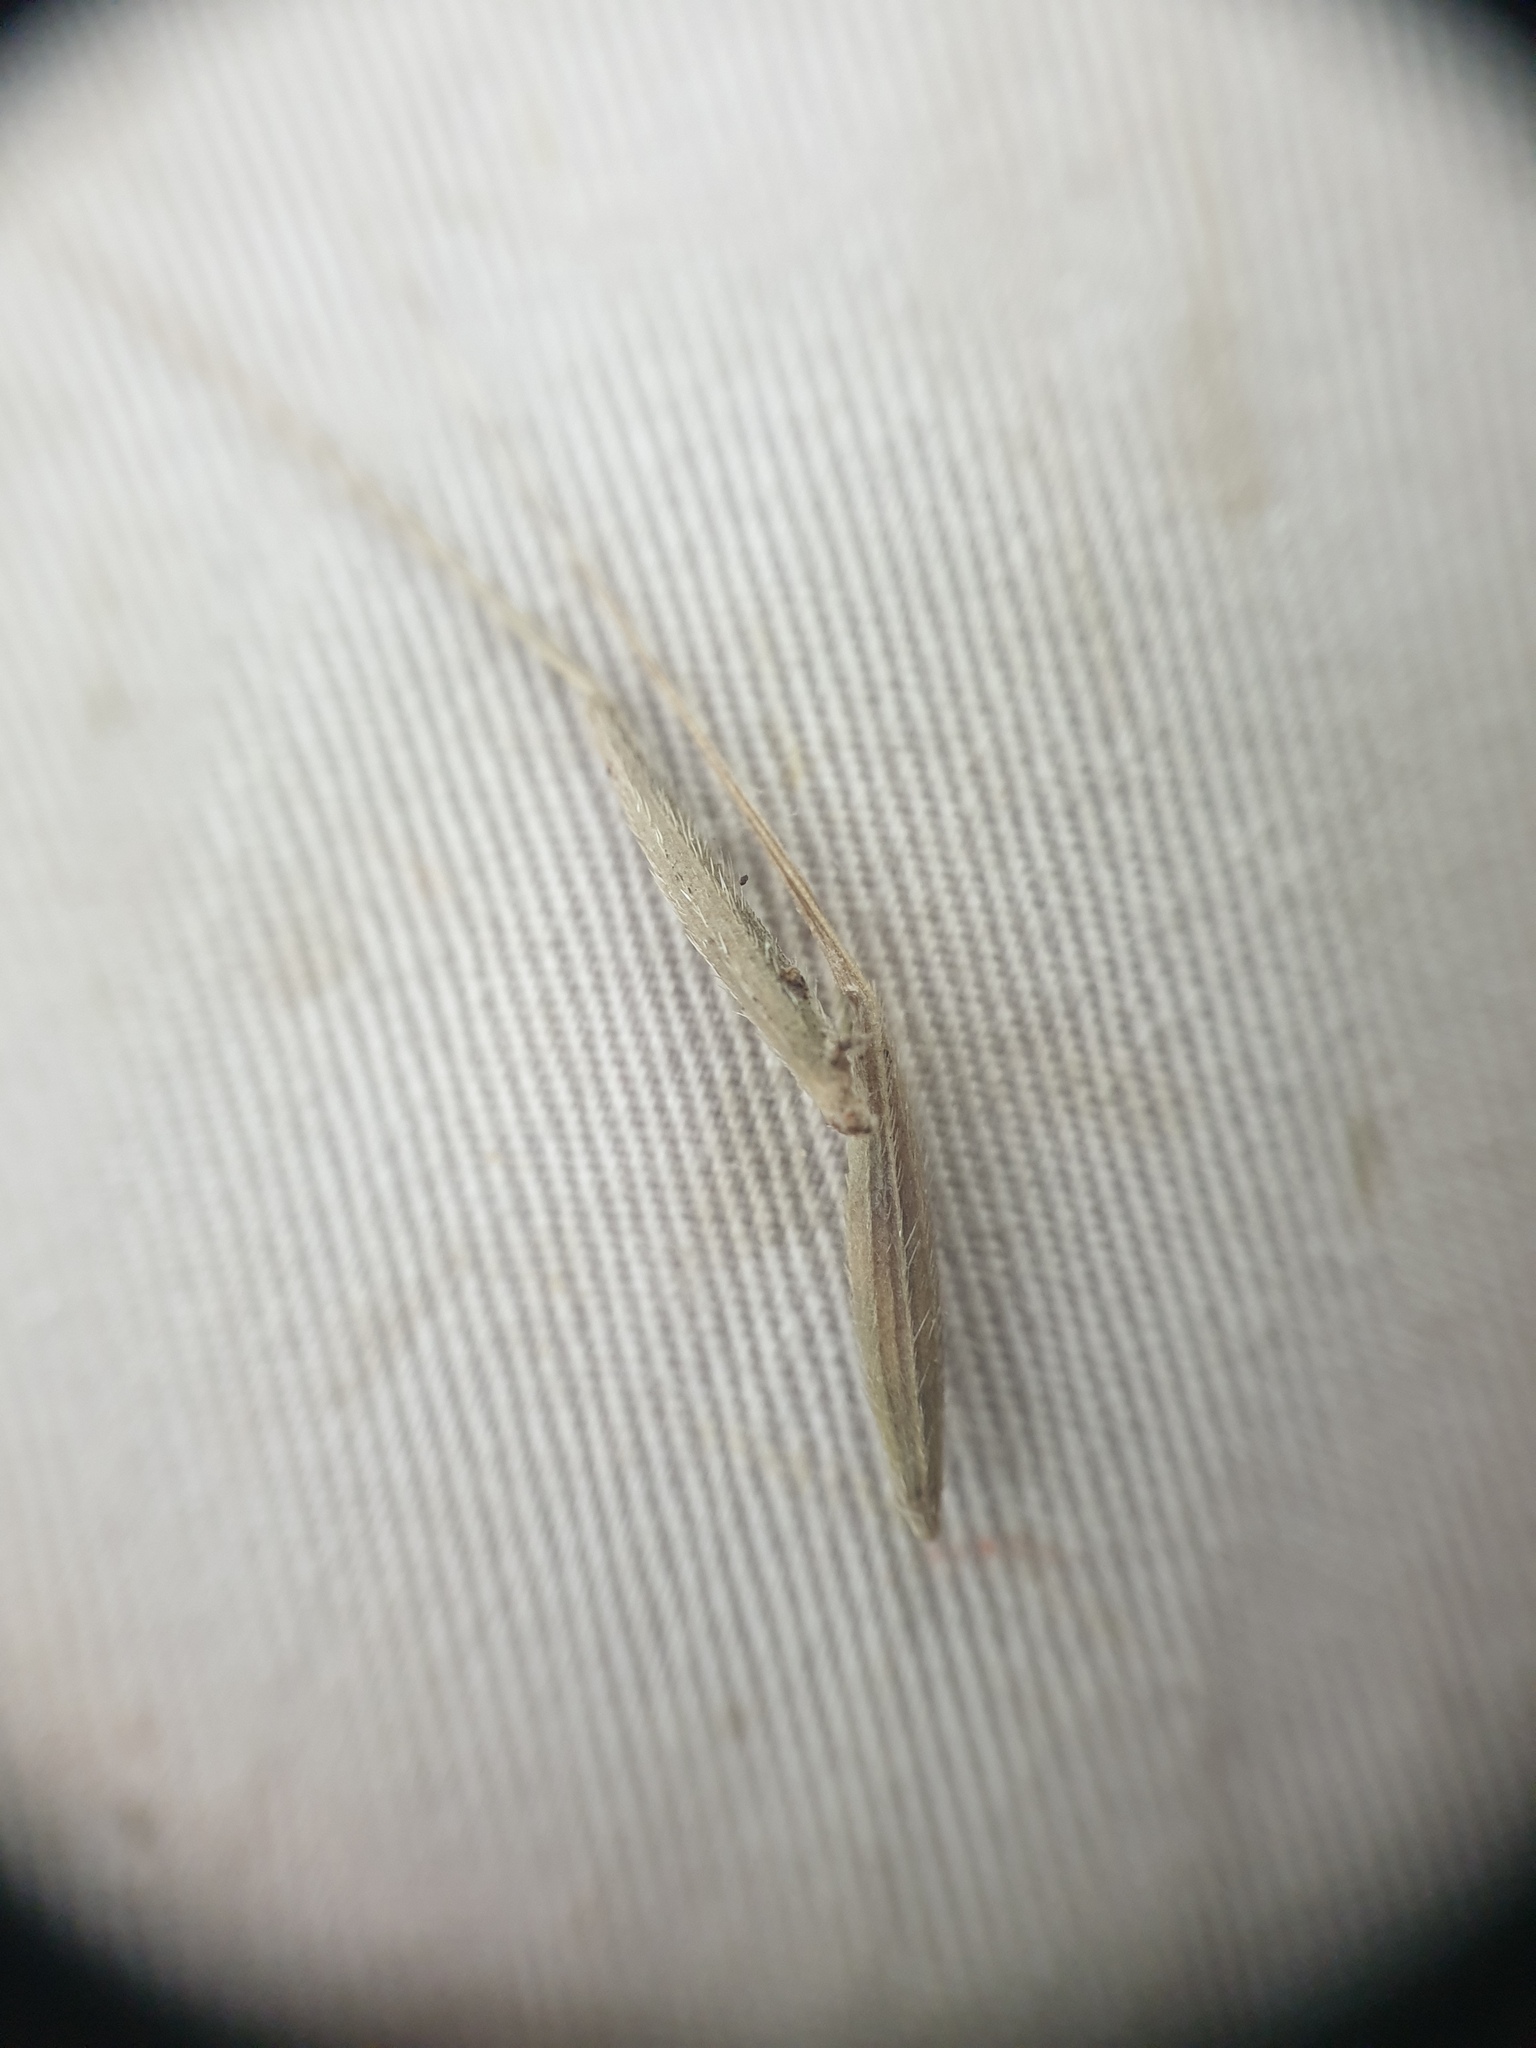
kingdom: Plantae
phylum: Tracheophyta
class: Liliopsida
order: Poales
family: Poaceae
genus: Brachyelytrum
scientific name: Brachyelytrum erectum
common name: Bearded shorthusk
